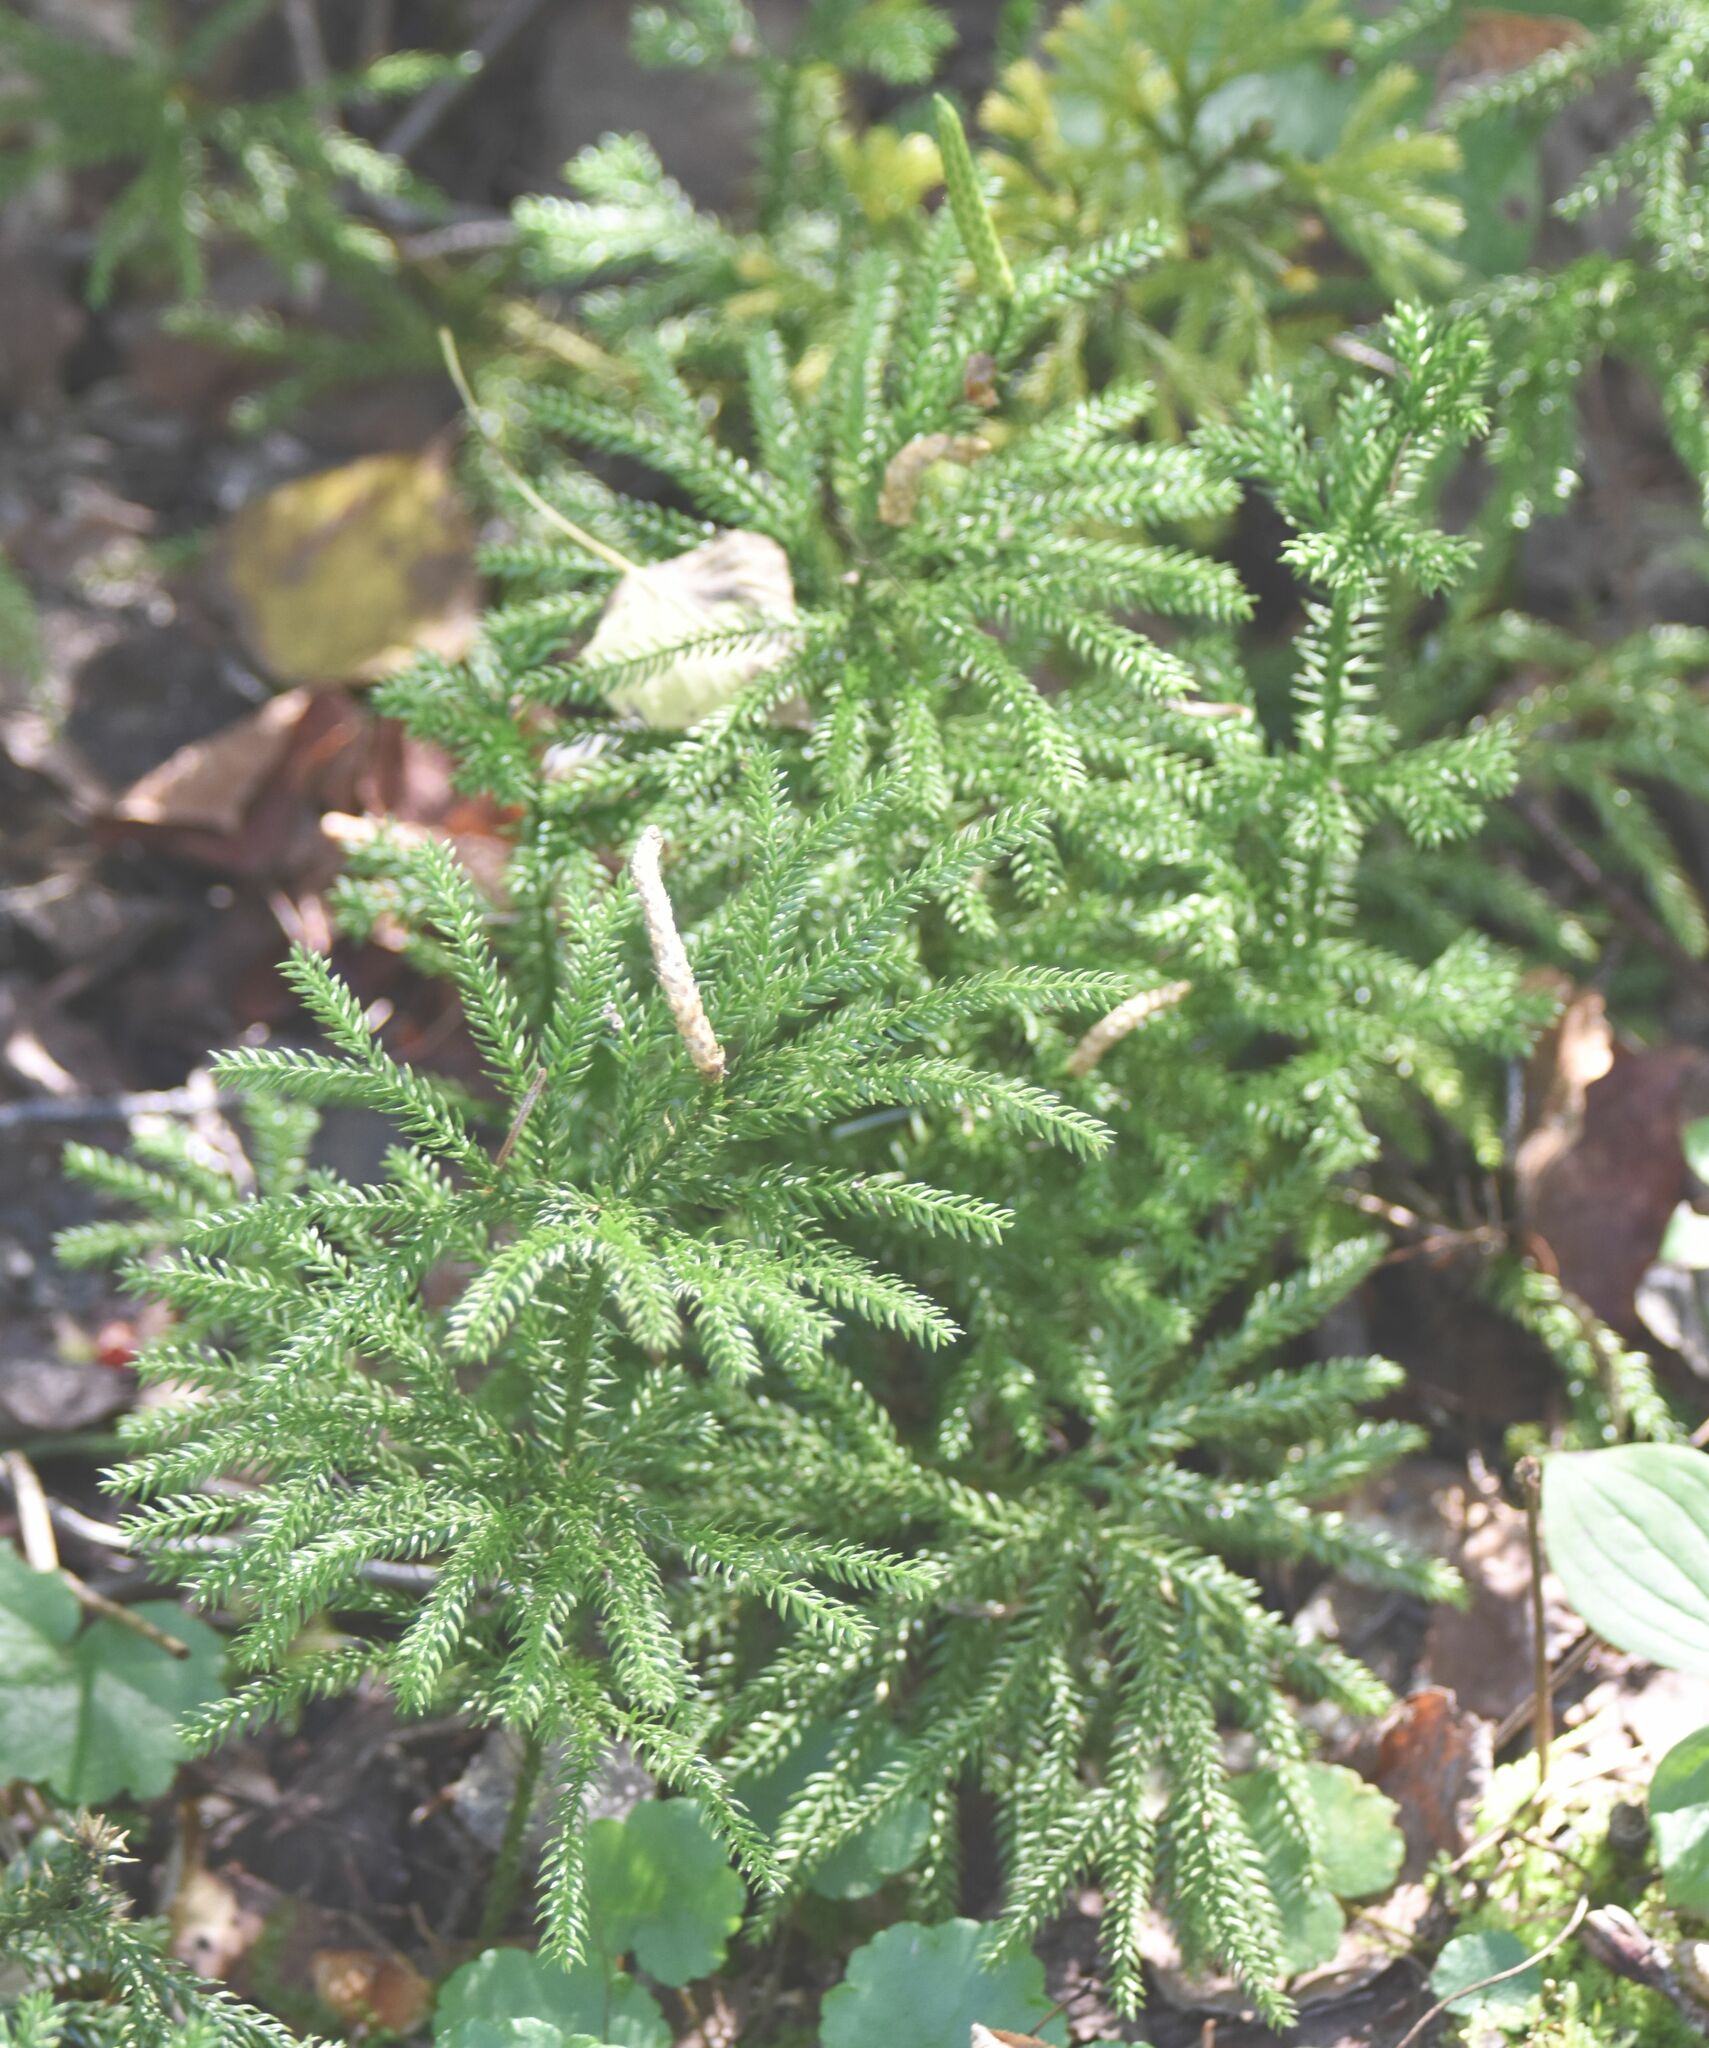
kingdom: Plantae
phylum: Tracheophyta
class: Lycopodiopsida
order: Lycopodiales
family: Lycopodiaceae
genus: Dendrolycopodium
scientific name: Dendrolycopodium dendroideum
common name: Northern tree-clubmoss
